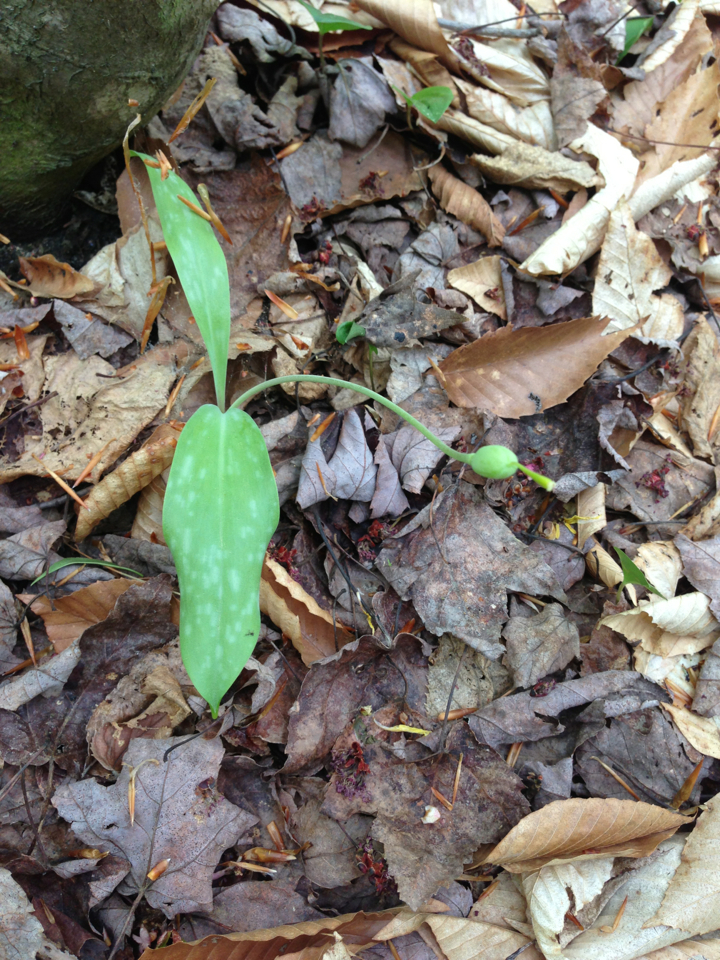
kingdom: Plantae
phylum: Tracheophyta
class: Liliopsida
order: Liliales
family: Liliaceae
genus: Erythronium
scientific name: Erythronium americanum
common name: Yellow adder's-tongue
